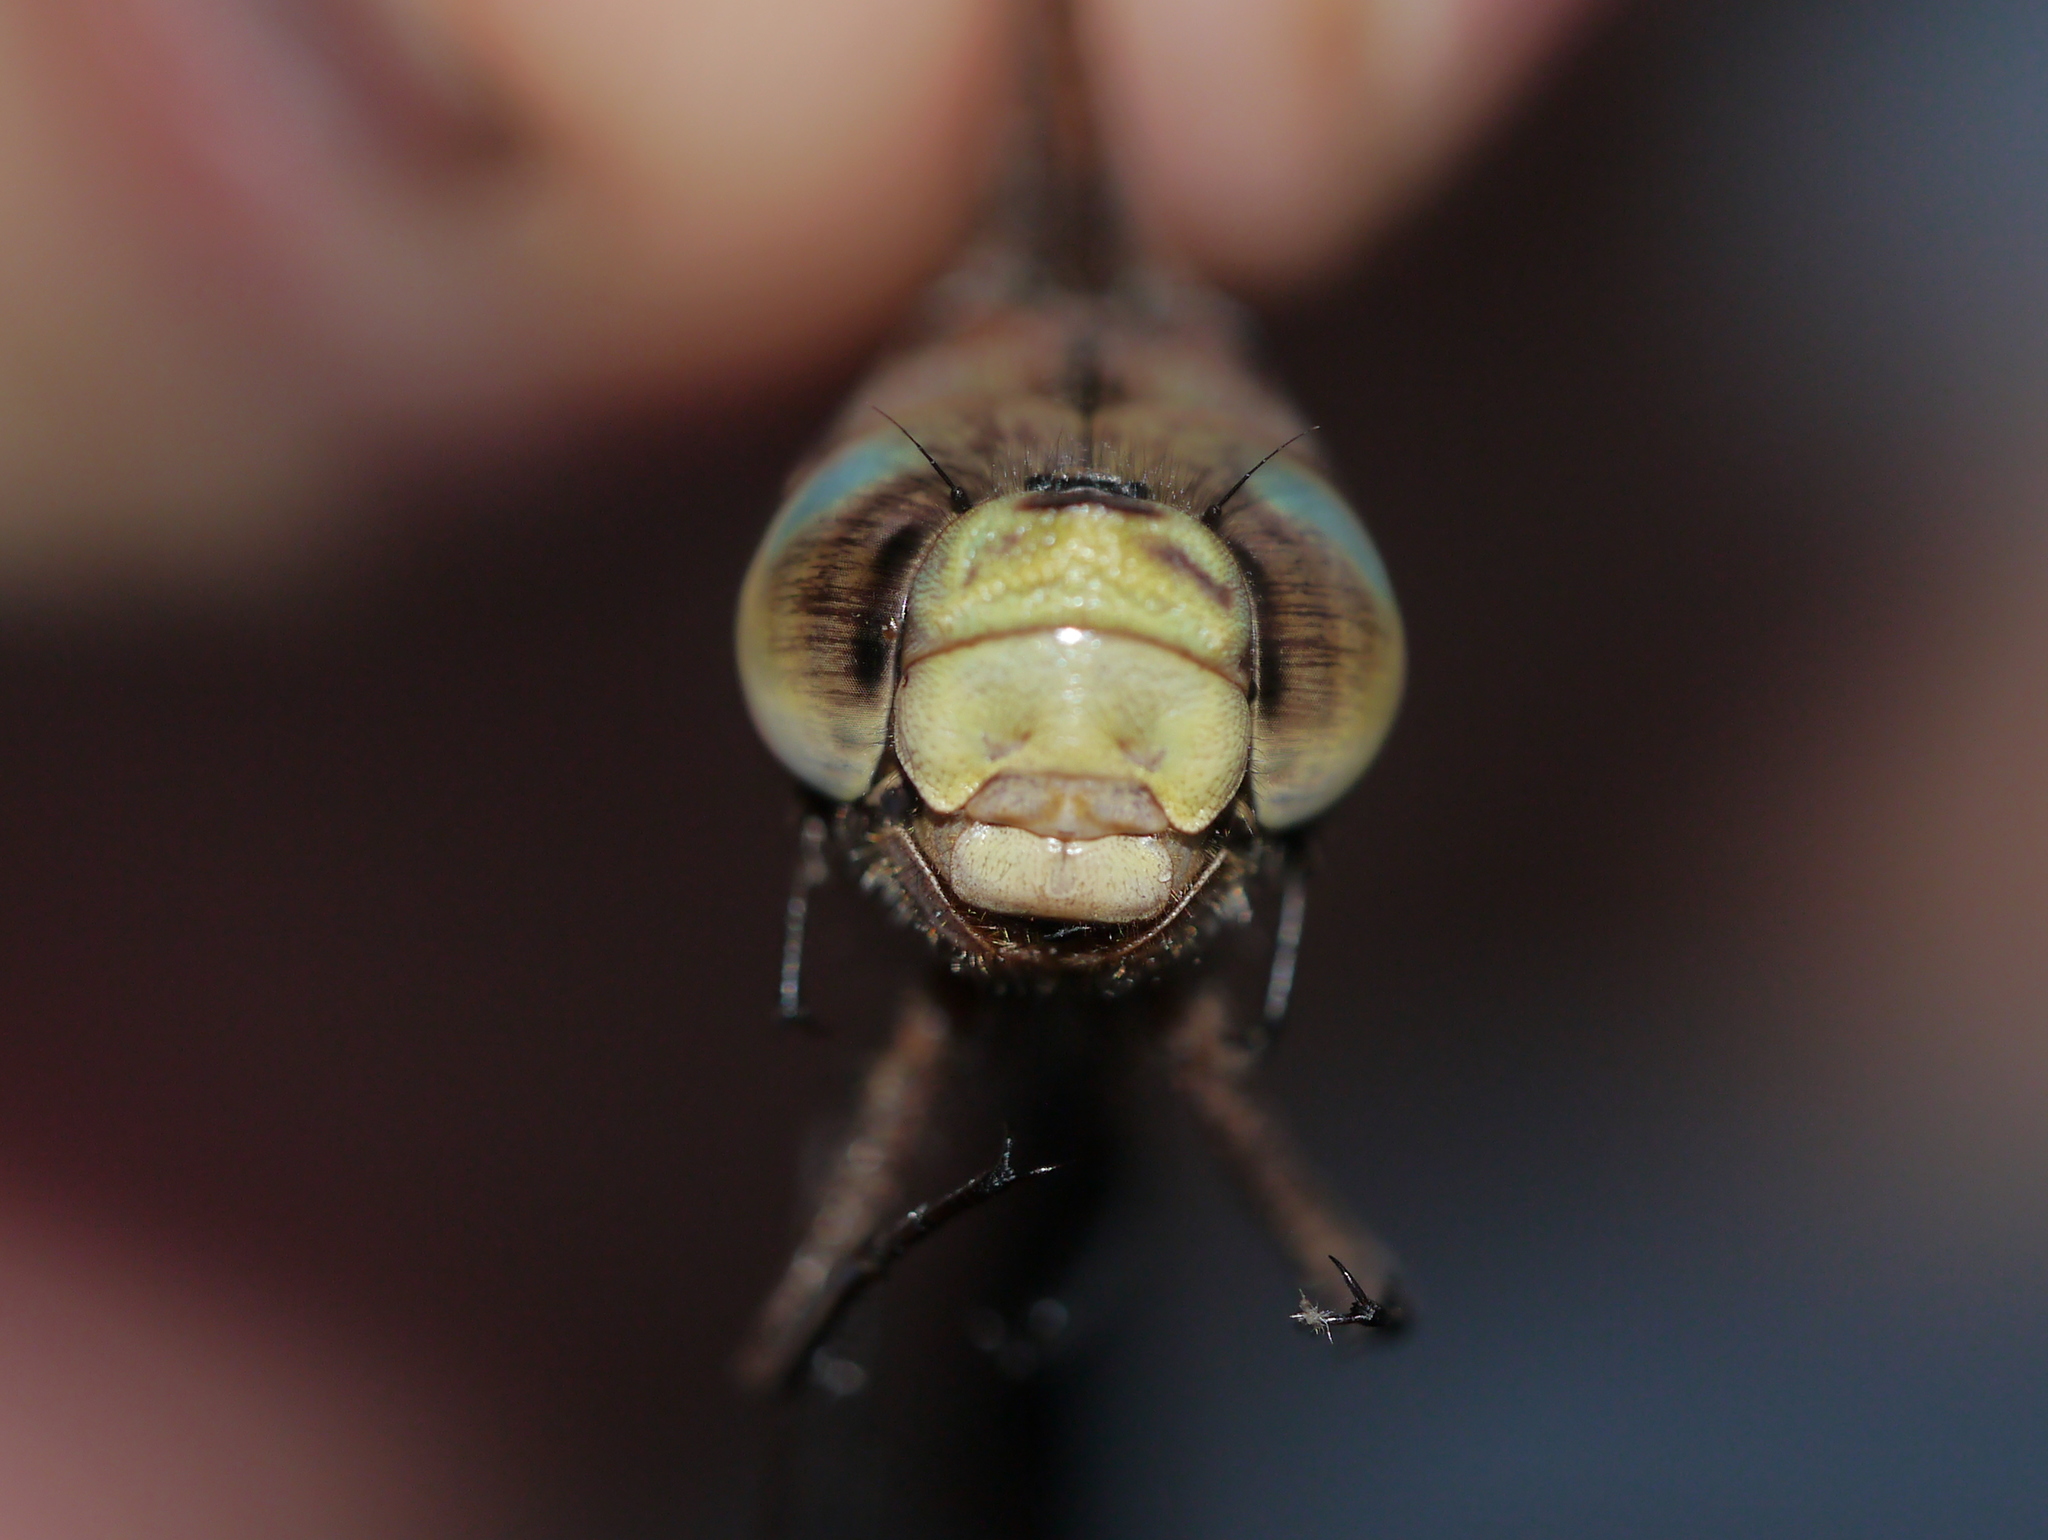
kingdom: Animalia
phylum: Arthropoda
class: Insecta
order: Odonata
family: Aeshnidae
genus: Basiaeschna
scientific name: Basiaeschna janata
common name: Springtime darner
